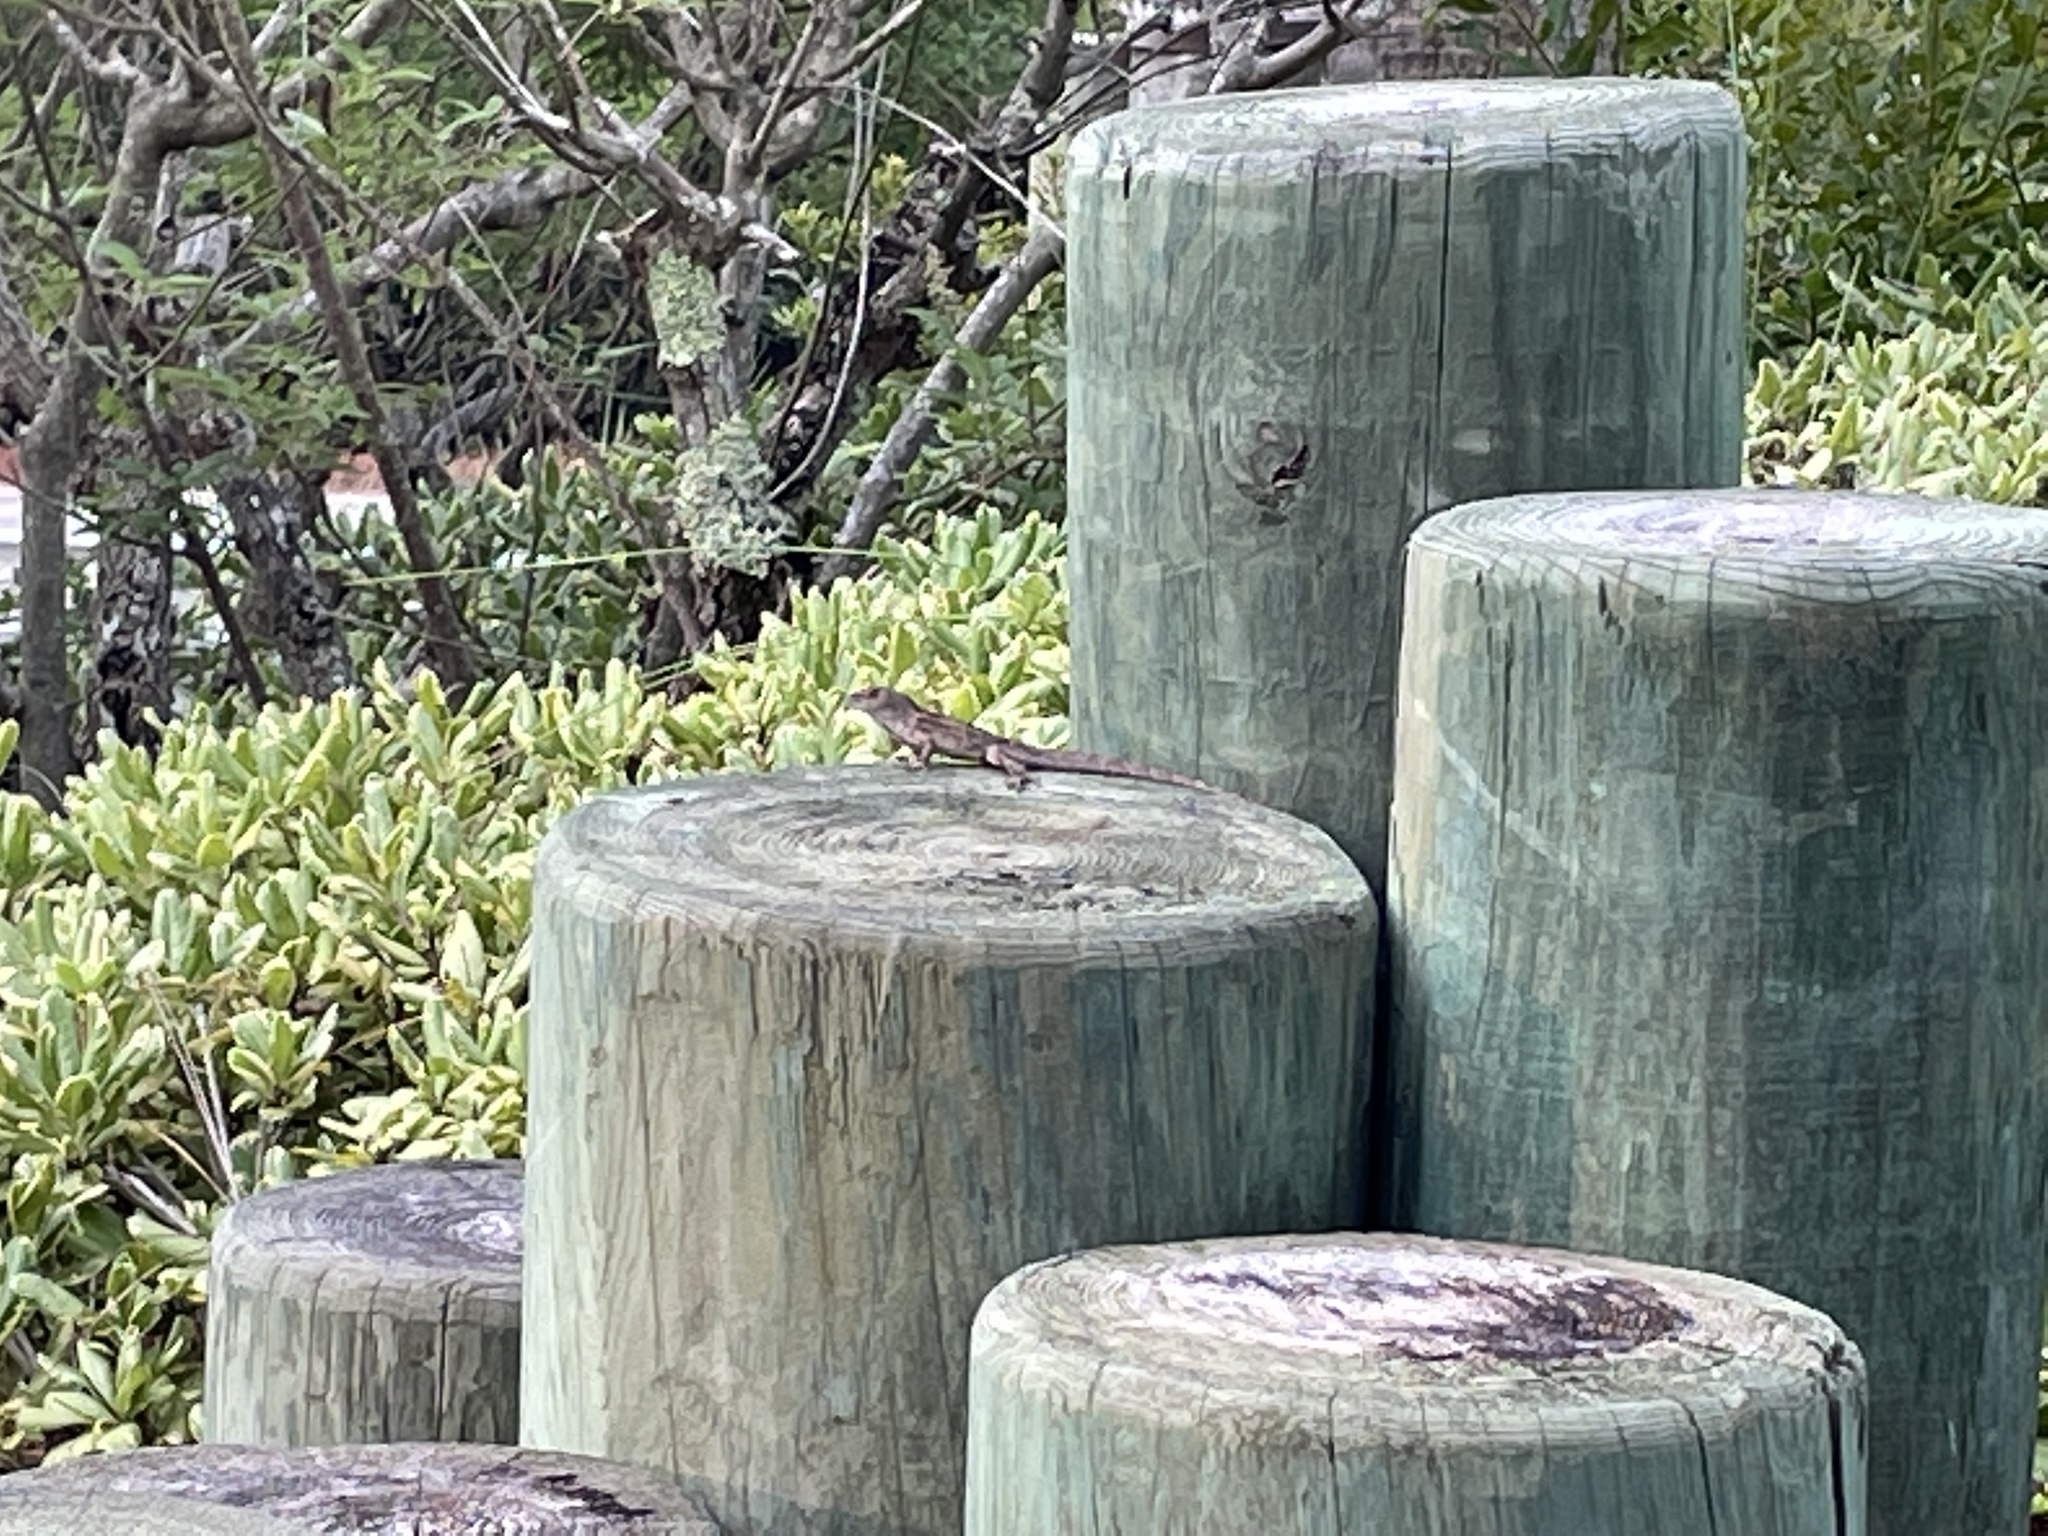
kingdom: Animalia
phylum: Chordata
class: Squamata
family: Dactyloidae
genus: Anolis
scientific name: Anolis sagrei
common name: Brown anole
